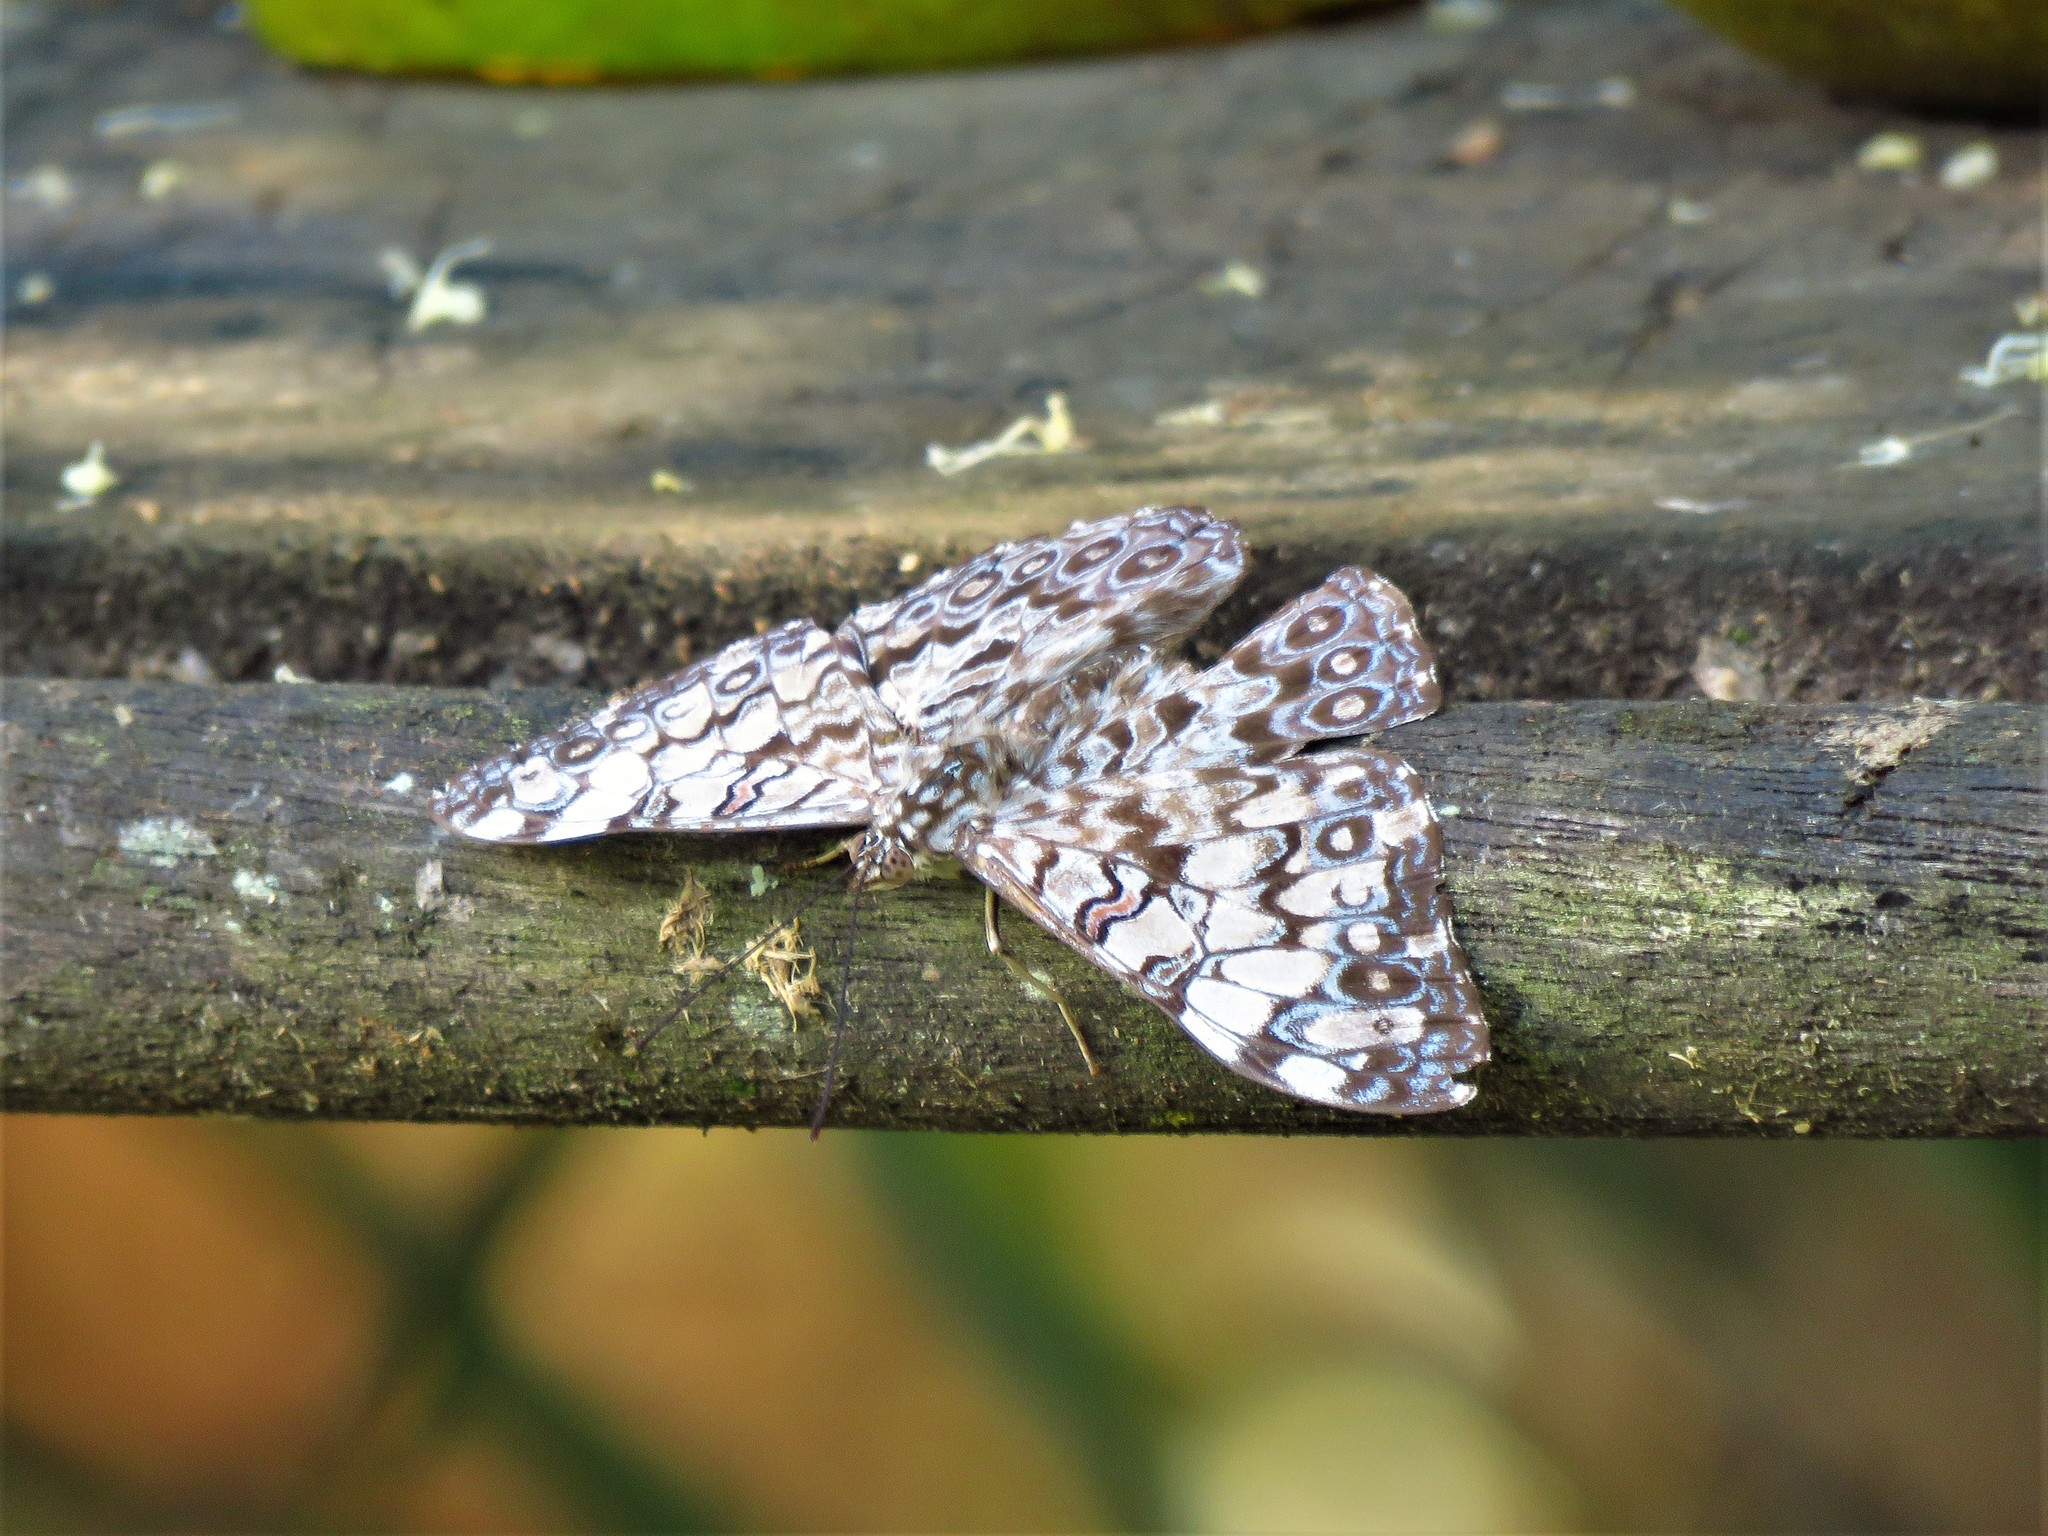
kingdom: Animalia
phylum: Arthropoda
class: Insecta
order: Lepidoptera
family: Nymphalidae
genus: Hamadryas
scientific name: Hamadryas feronia
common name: Variable cracker
